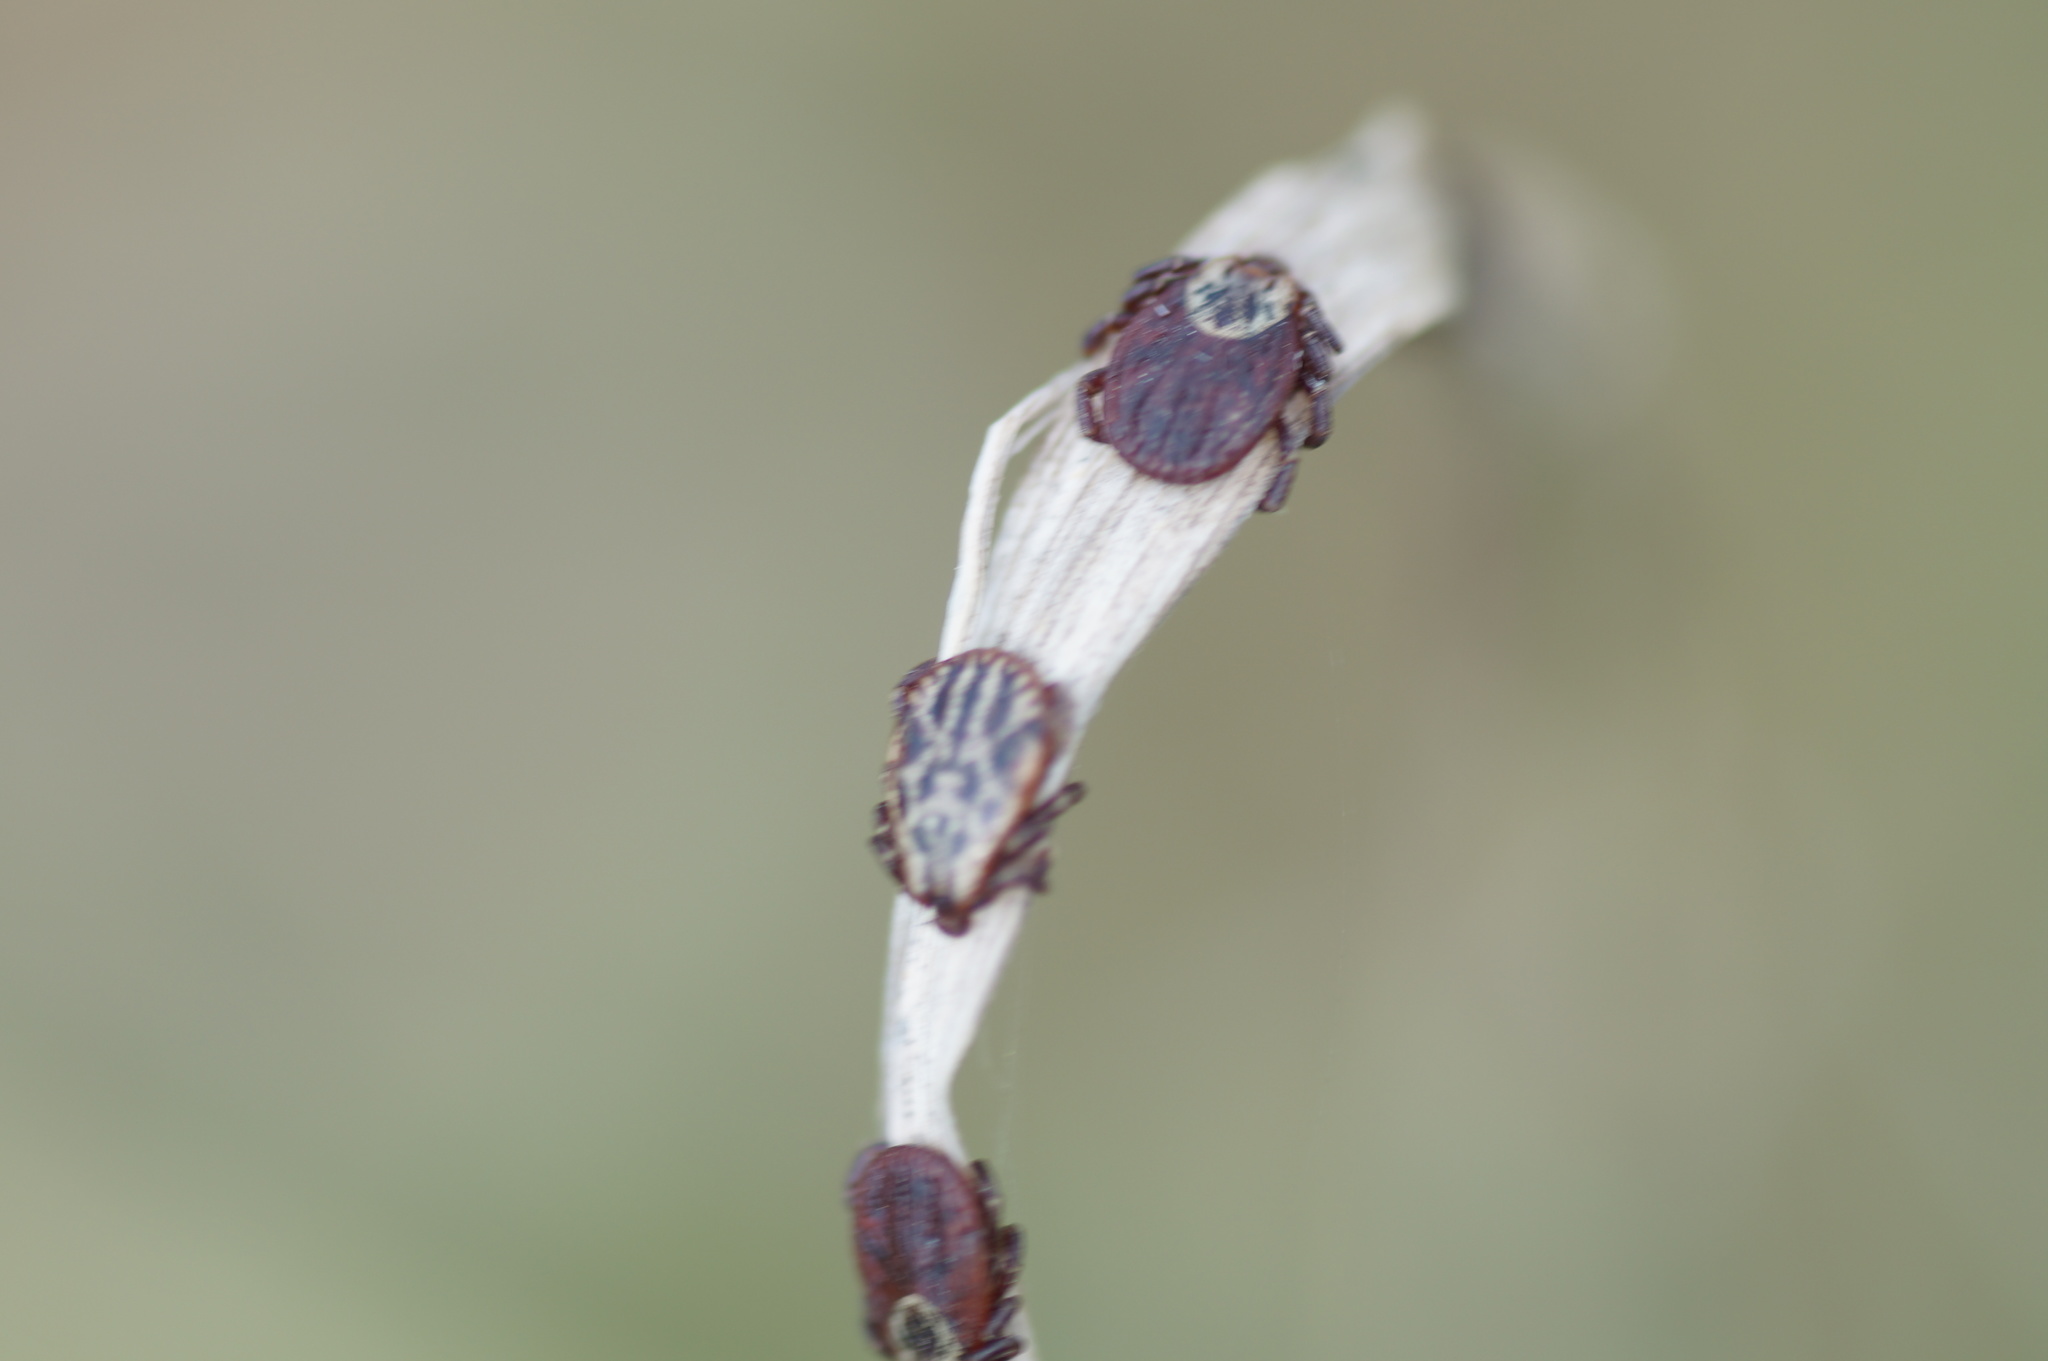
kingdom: Animalia
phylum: Arthropoda
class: Arachnida
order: Ixodida
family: Ixodidae
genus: Dermacentor
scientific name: Dermacentor reticulatus
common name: Ornate cow tick
